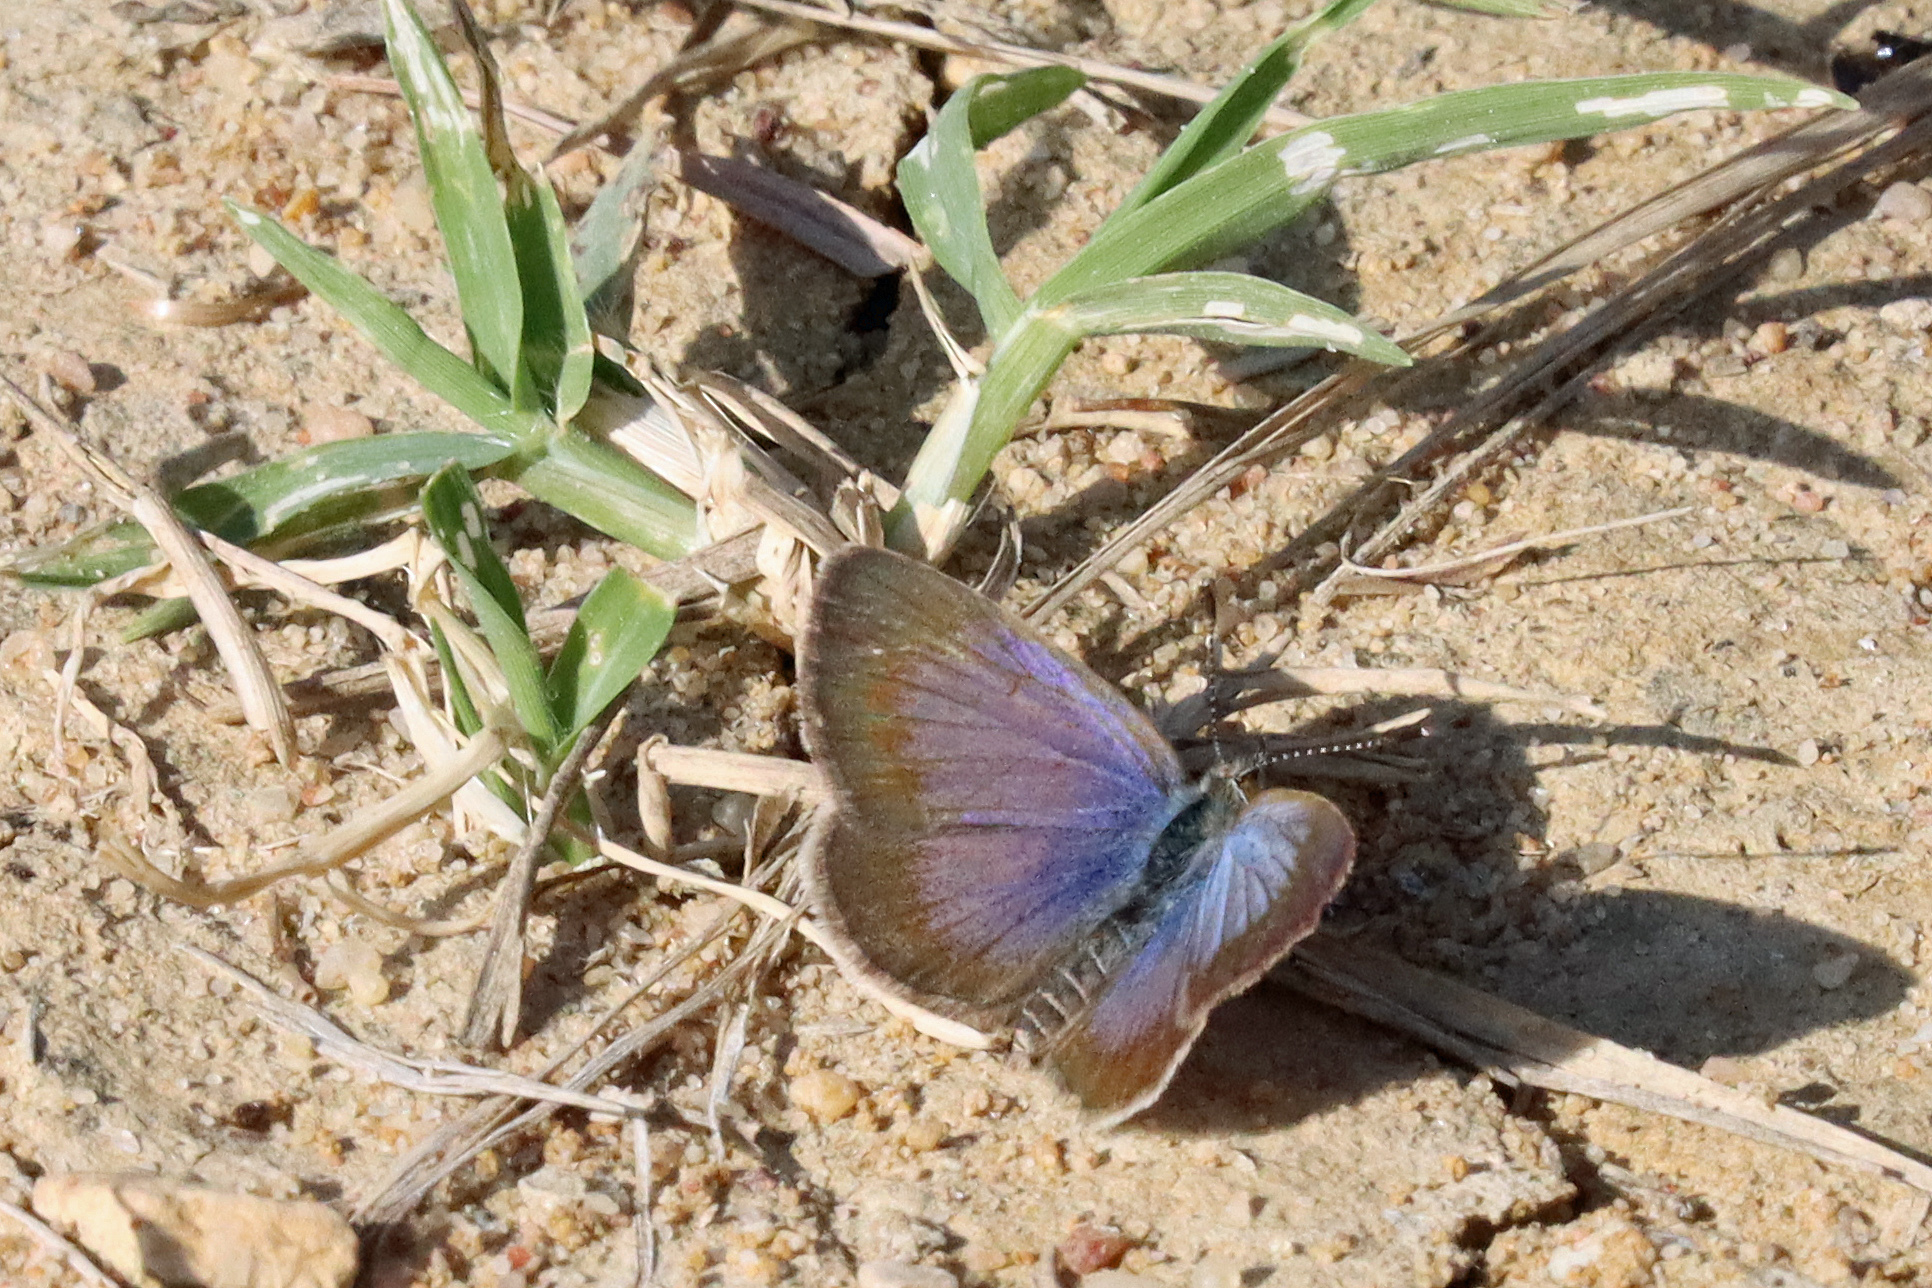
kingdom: Animalia
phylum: Arthropoda
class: Insecta
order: Lepidoptera
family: Lycaenidae
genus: Zizeeria
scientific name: Zizeeria knysna
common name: African grass blue
